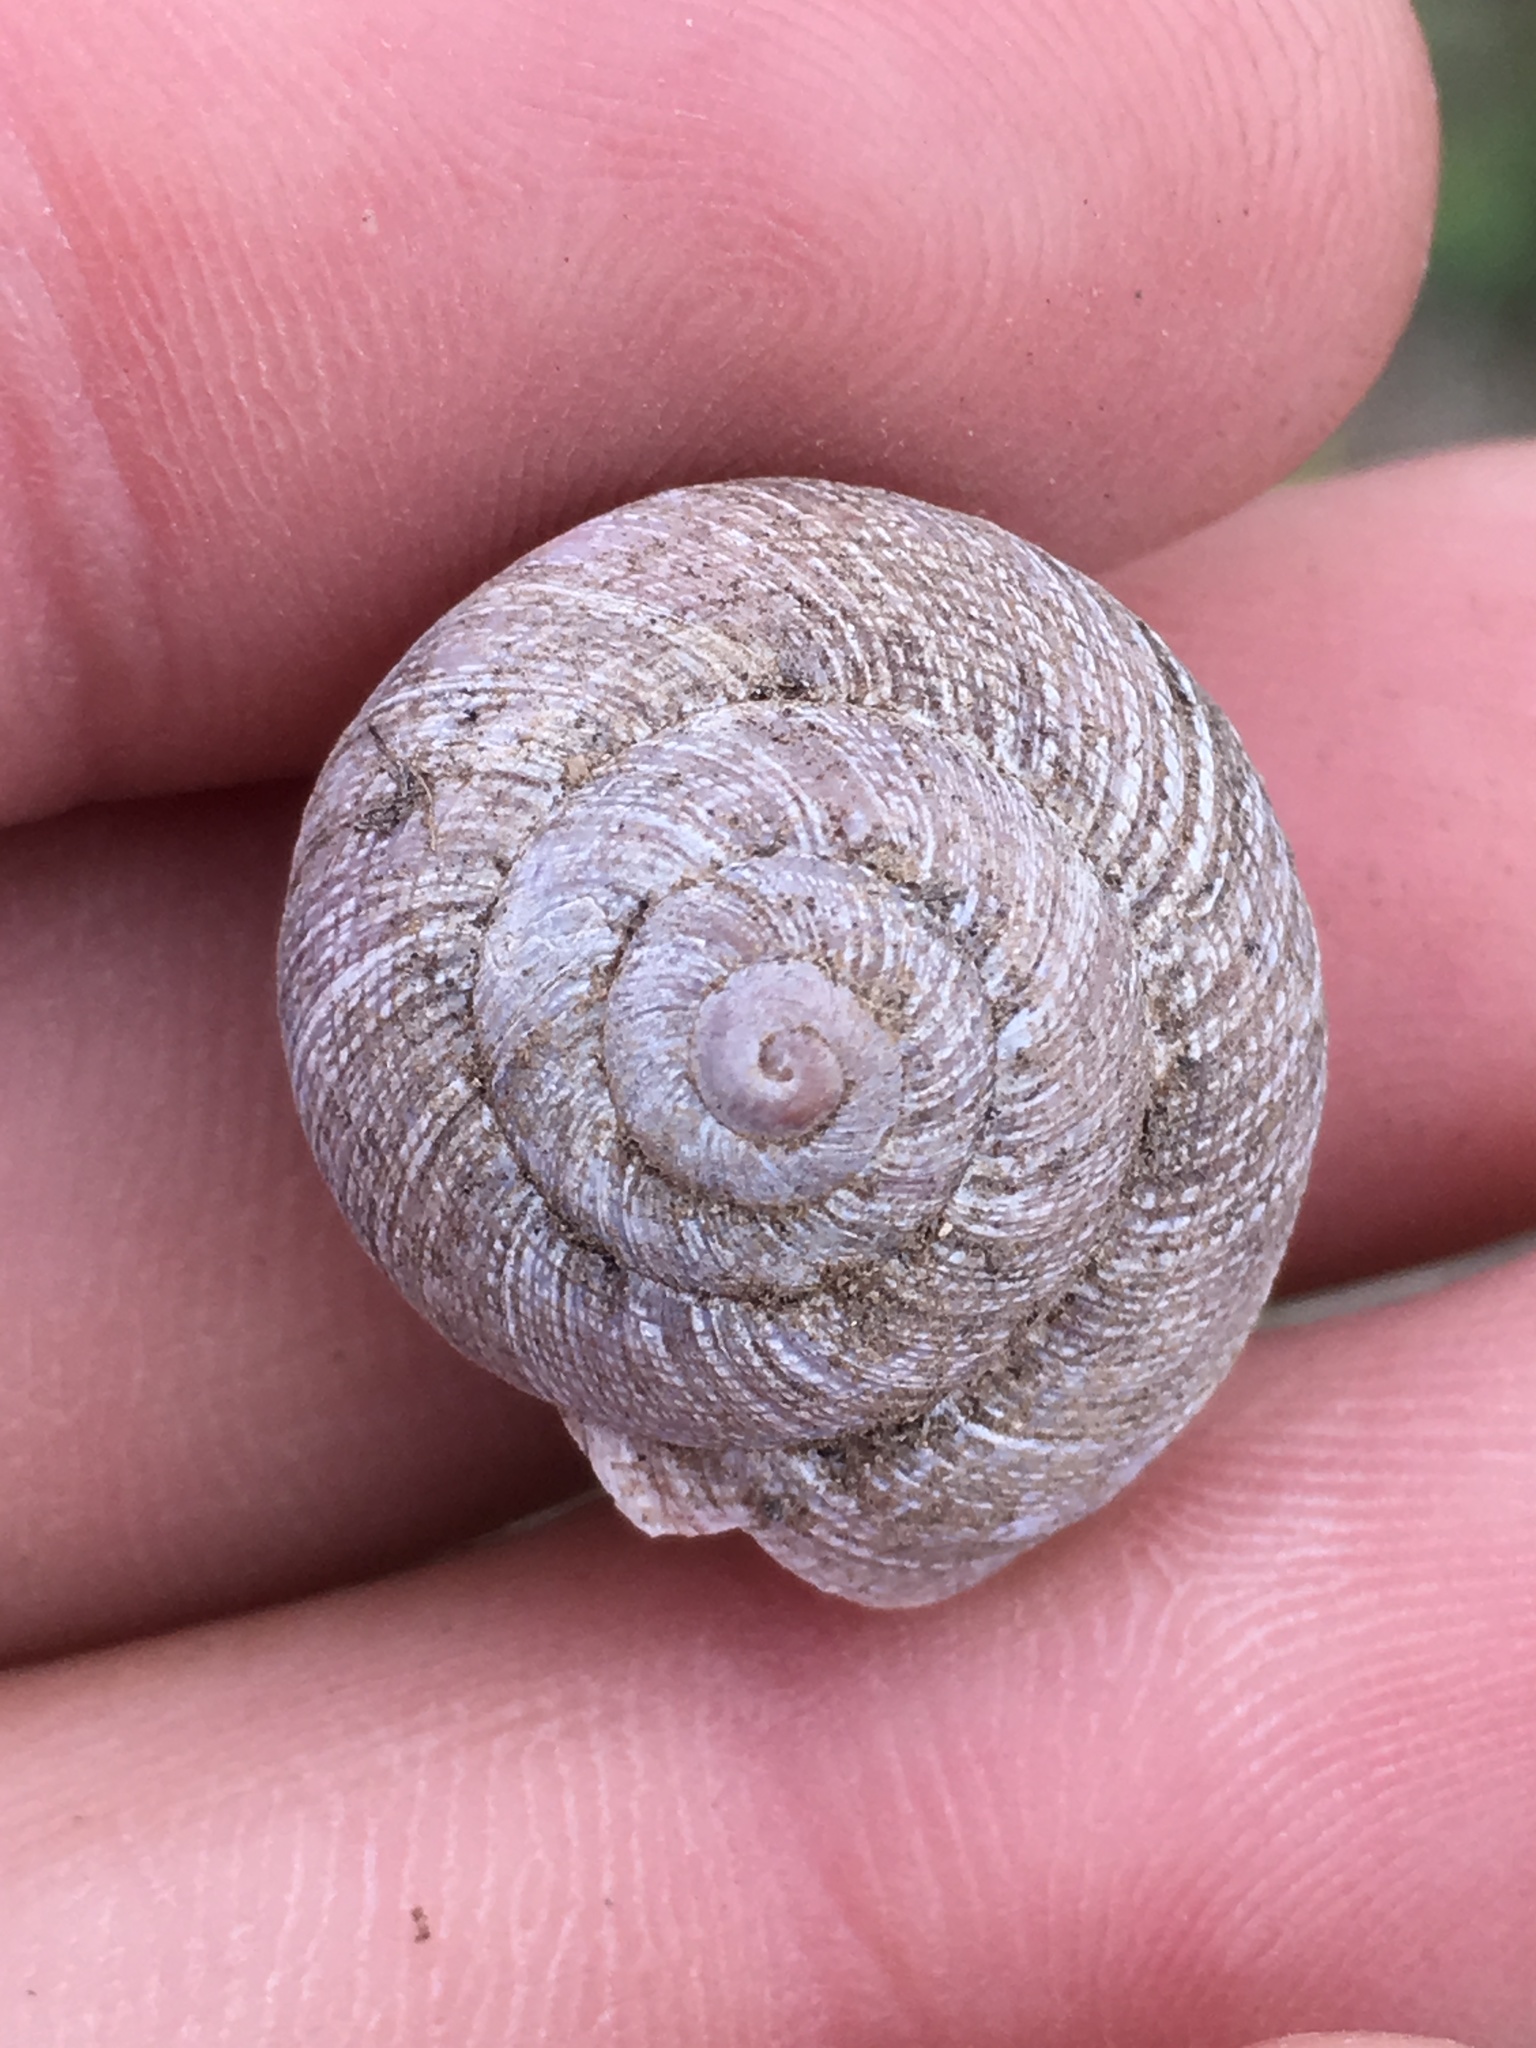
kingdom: Animalia
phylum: Mollusca
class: Gastropoda
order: Stylommatophora
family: Xanthonychidae
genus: Xerarionta
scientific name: Xerarionta intercisa
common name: Plain cactus snail
